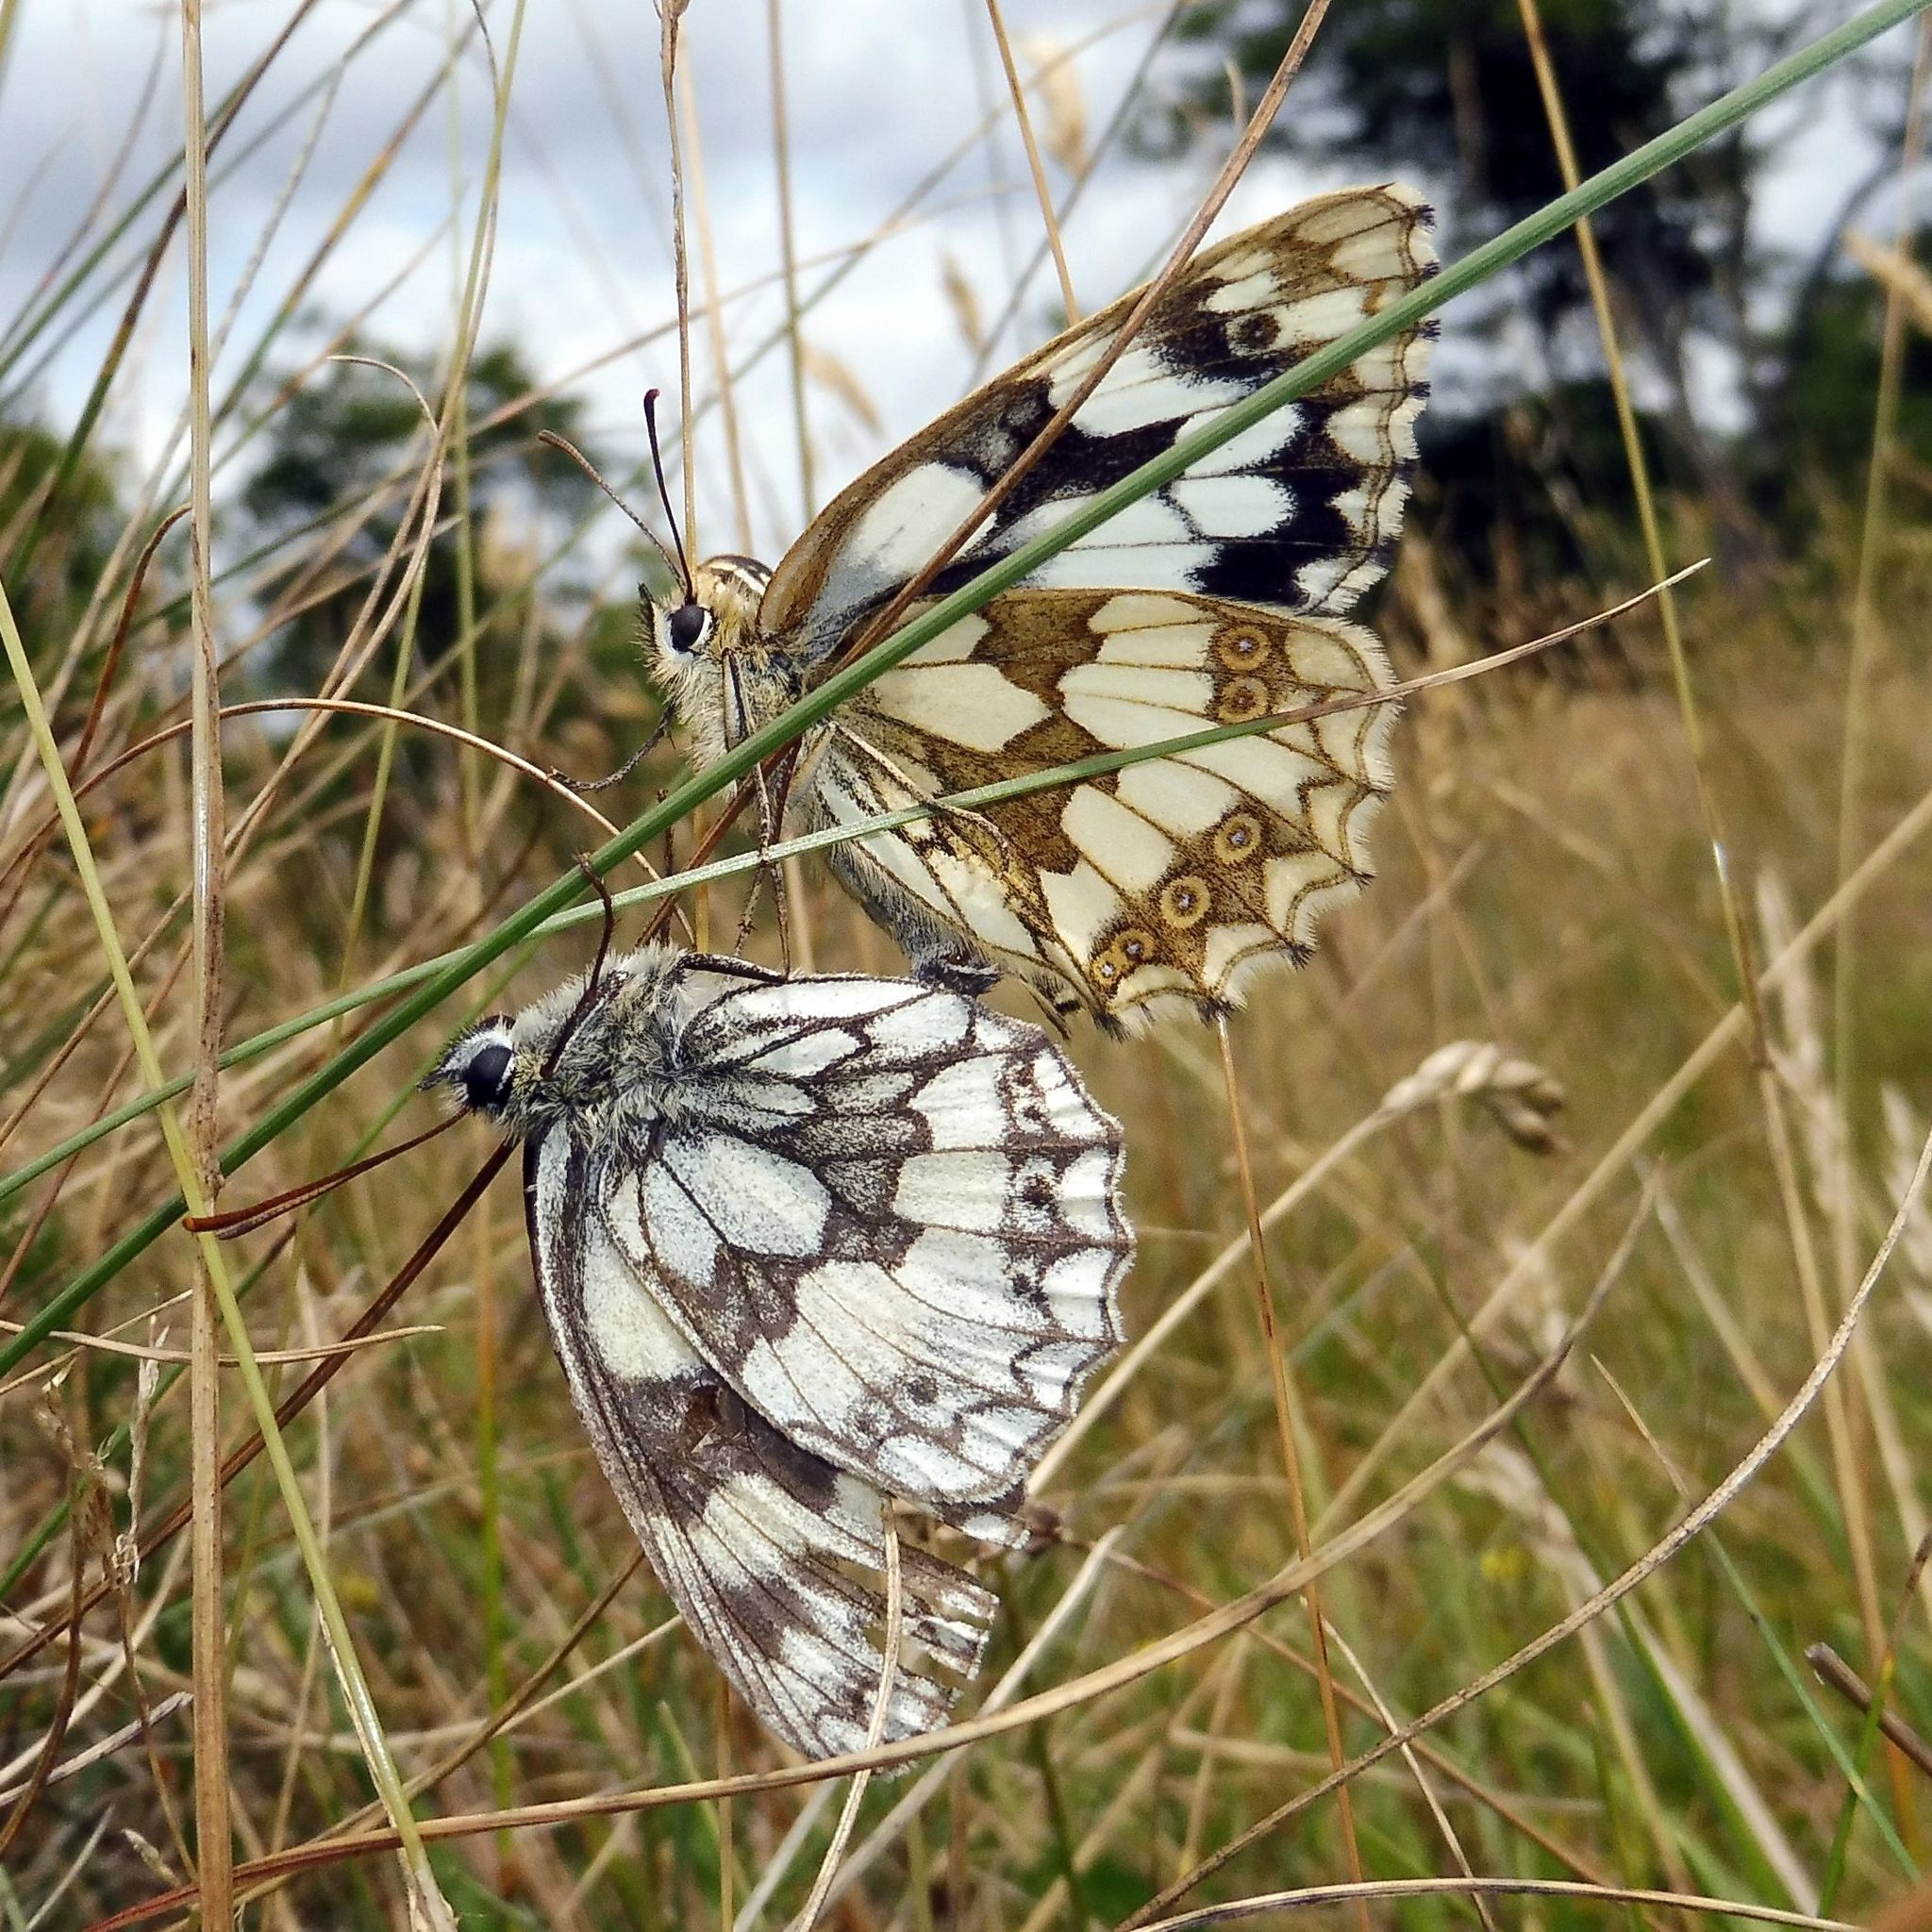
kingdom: Animalia
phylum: Arthropoda
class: Insecta
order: Lepidoptera
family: Nymphalidae
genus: Melanargia
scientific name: Melanargia galathea
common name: Marbled white
